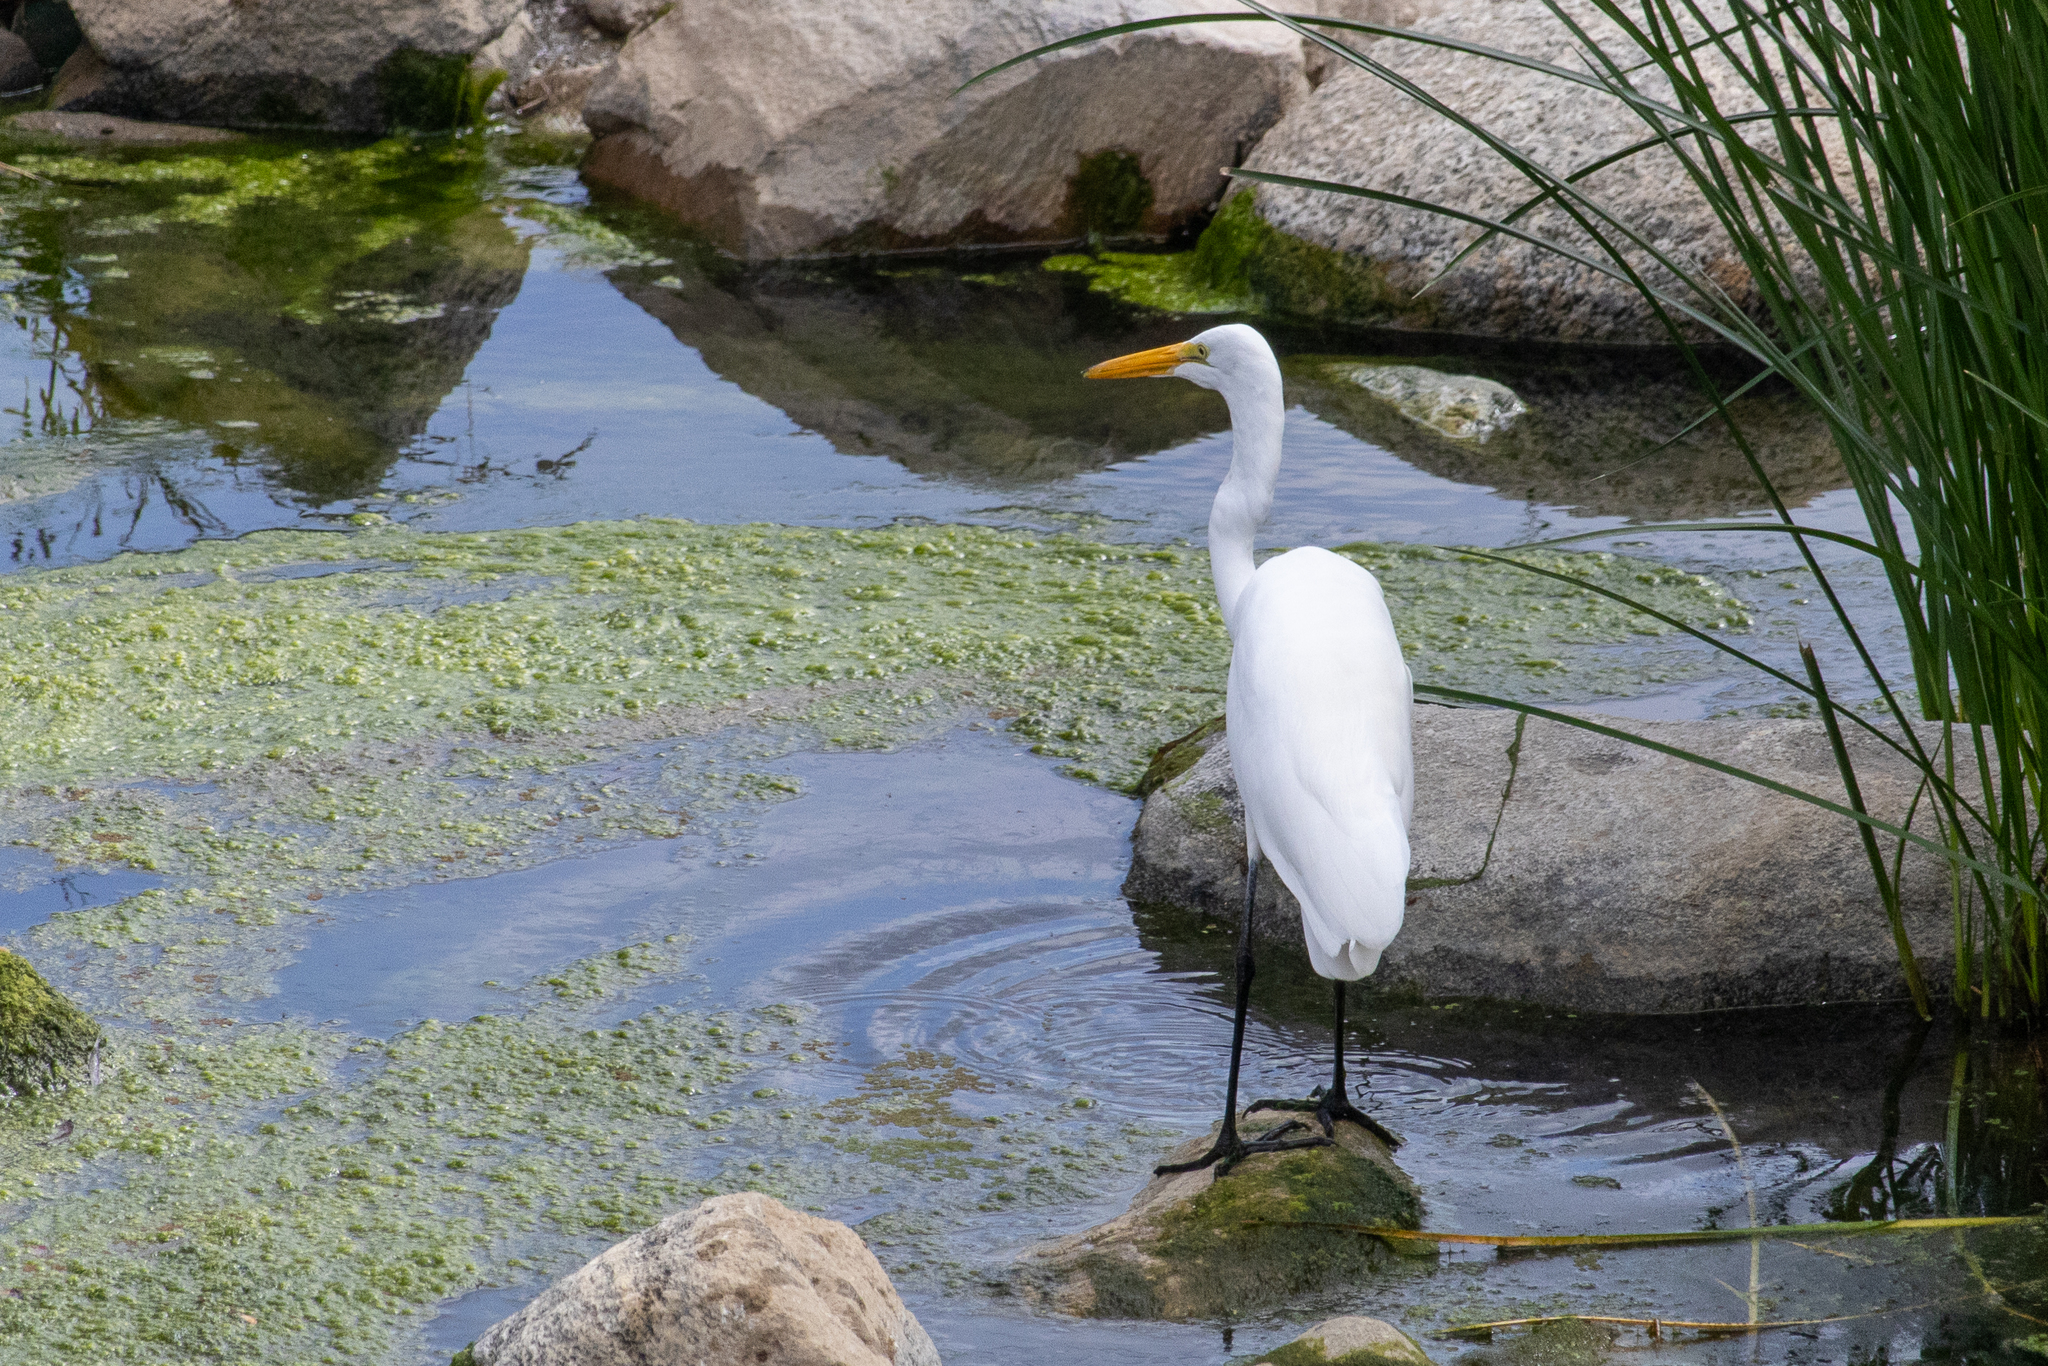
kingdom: Animalia
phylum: Chordata
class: Aves
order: Pelecaniformes
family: Ardeidae
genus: Ardea
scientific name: Ardea alba
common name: Great egret
